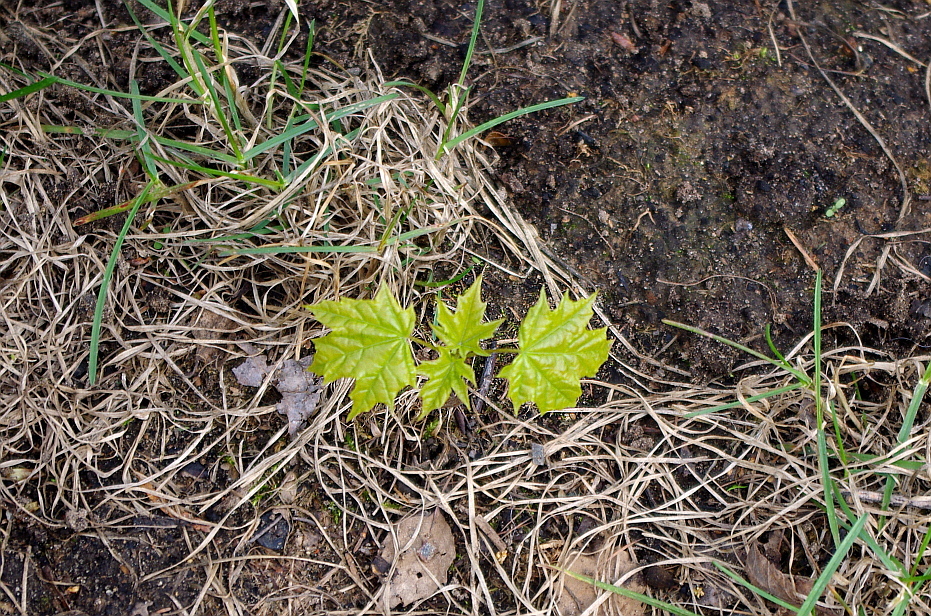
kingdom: Plantae
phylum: Tracheophyta
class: Magnoliopsida
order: Sapindales
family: Sapindaceae
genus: Acer
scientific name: Acer platanoides
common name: Norway maple
